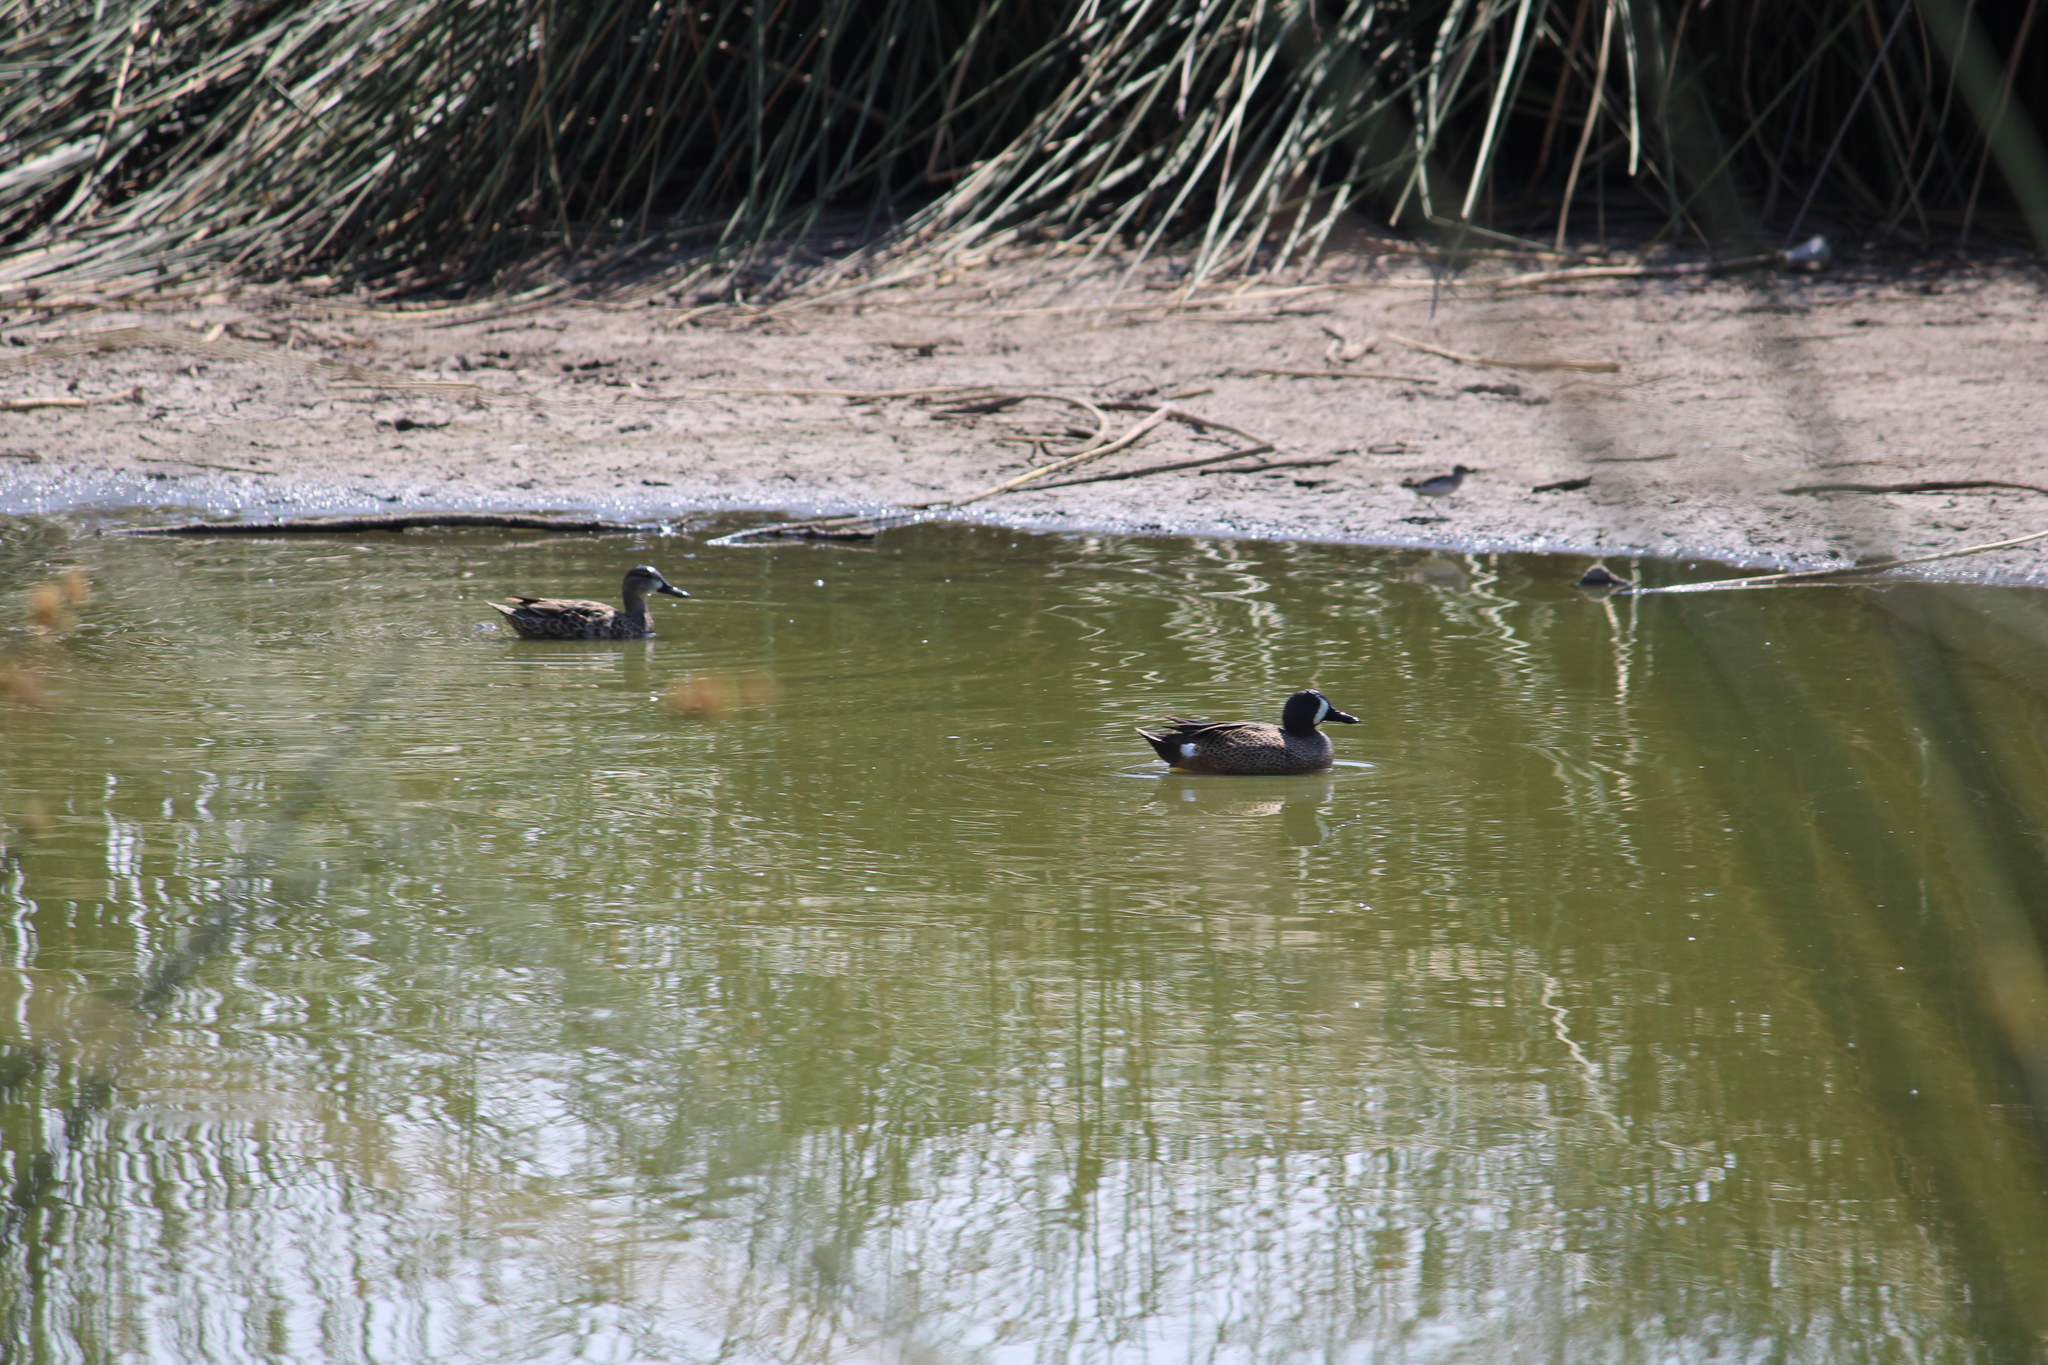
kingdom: Animalia
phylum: Chordata
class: Aves
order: Anseriformes
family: Anatidae
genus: Spatula
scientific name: Spatula discors
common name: Blue-winged teal
